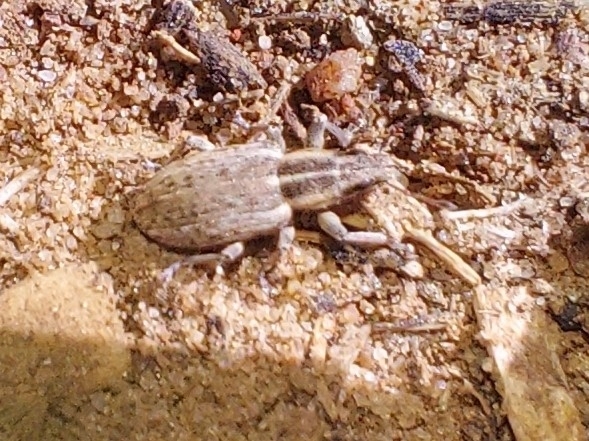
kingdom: Animalia
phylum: Arthropoda
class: Insecta
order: Coleoptera
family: Curculionidae
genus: Sitona
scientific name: Sitona discoideus
